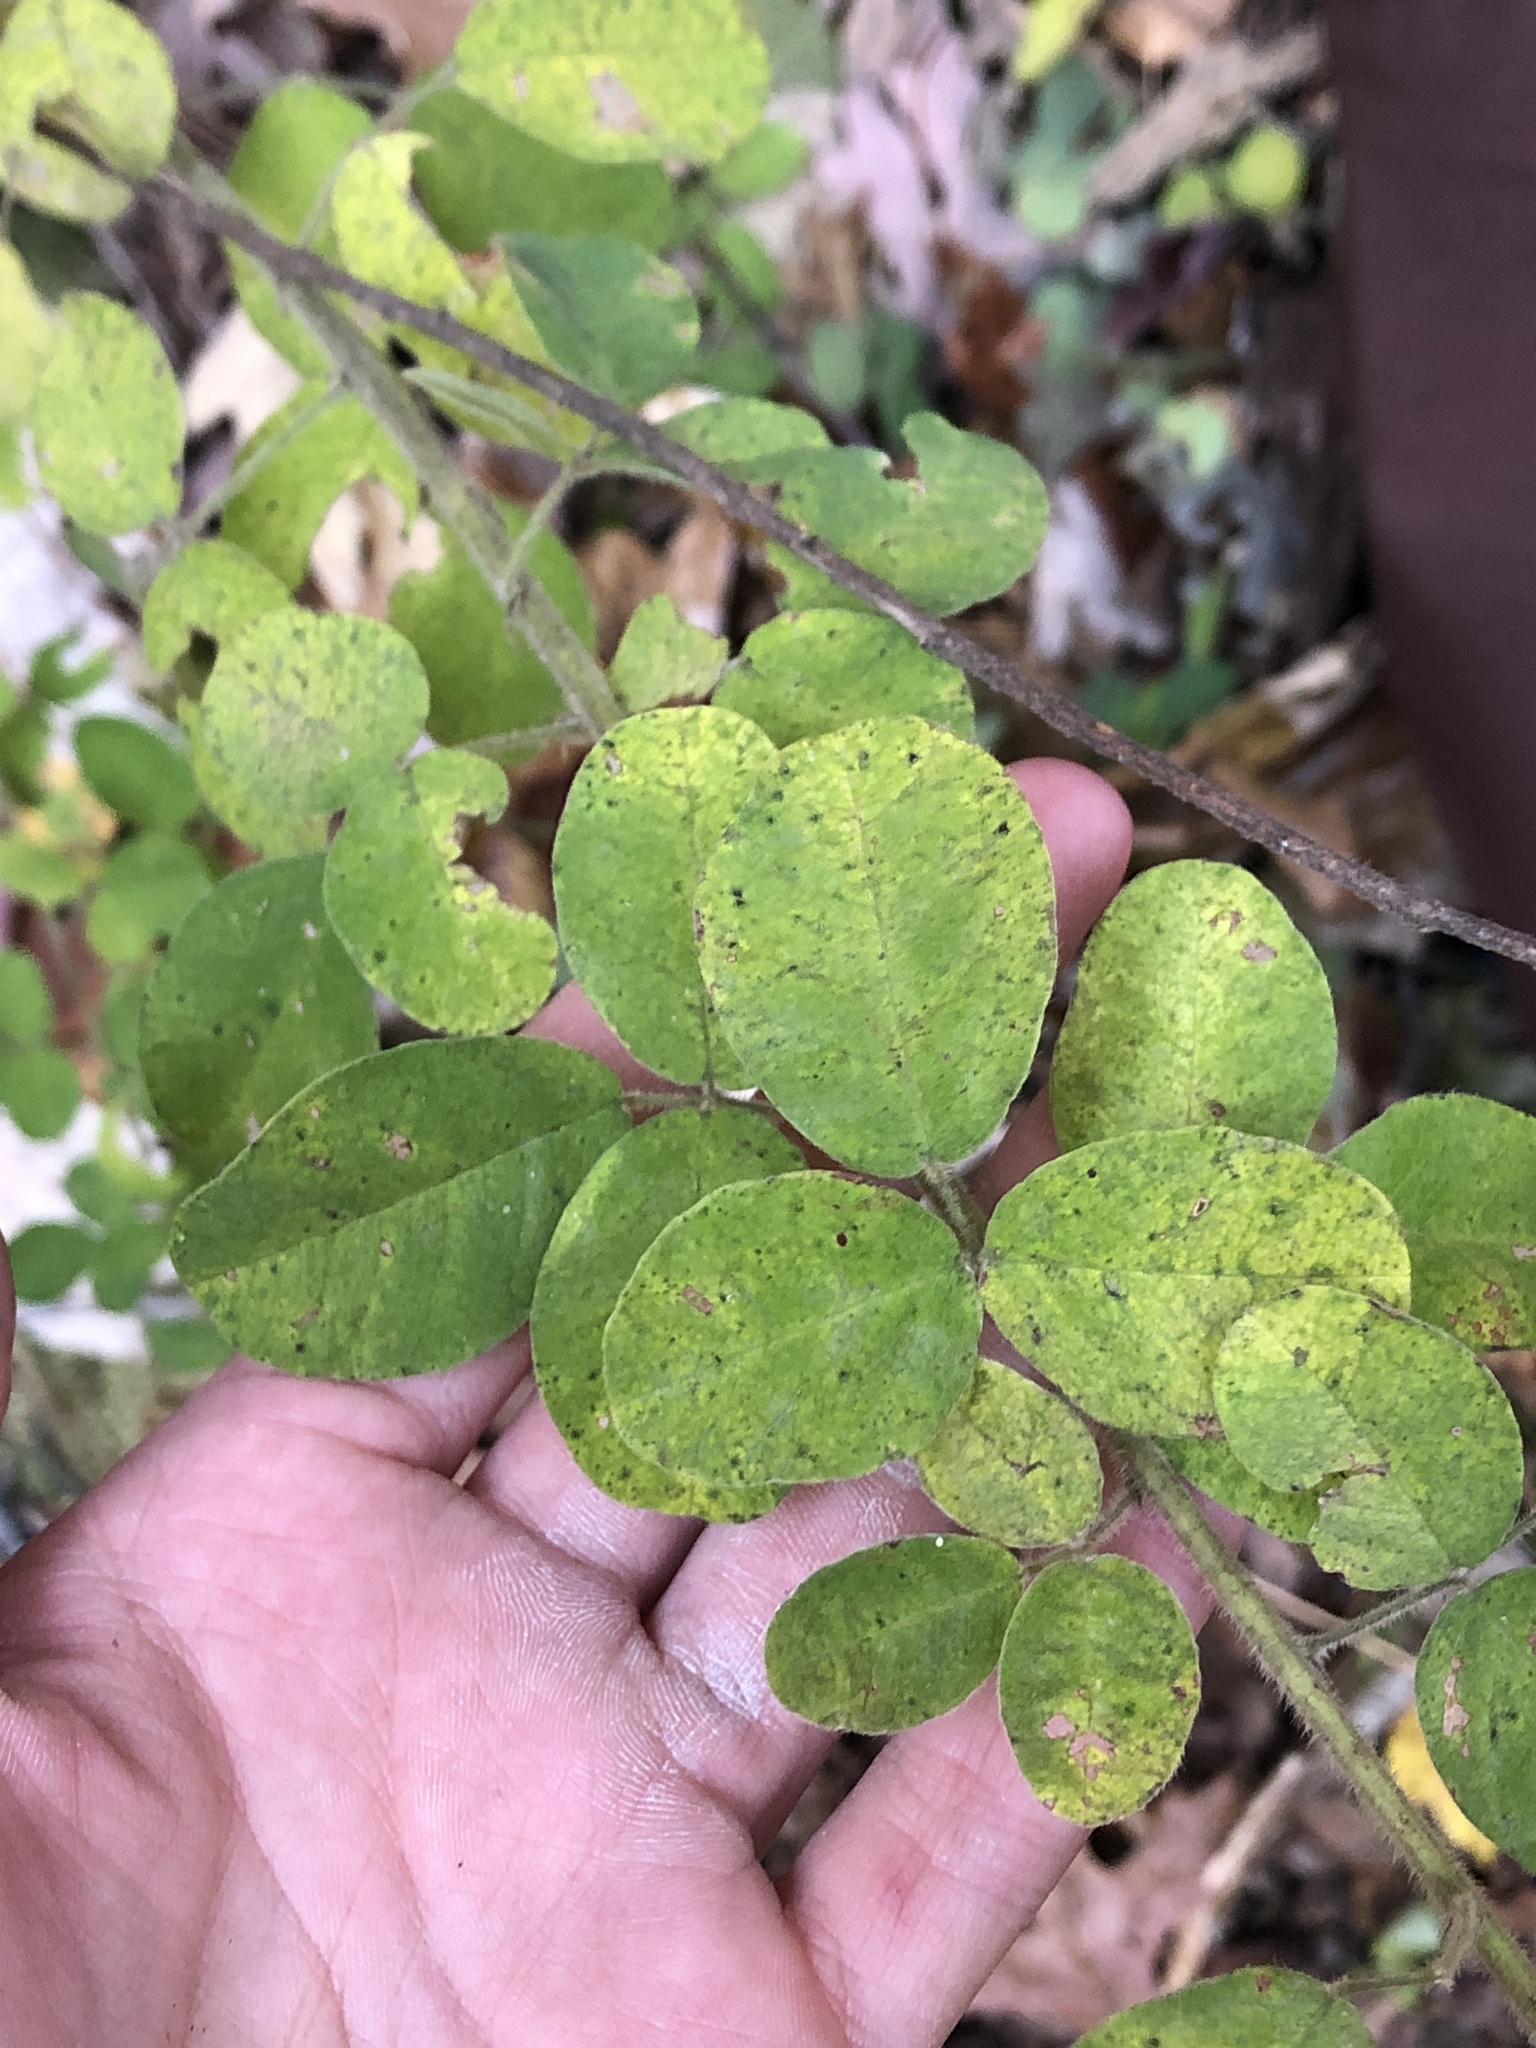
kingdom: Plantae
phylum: Tracheophyta
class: Magnoliopsida
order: Fabales
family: Fabaceae
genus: Lespedeza
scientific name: Lespedeza hirta
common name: Hairy lespedeza
